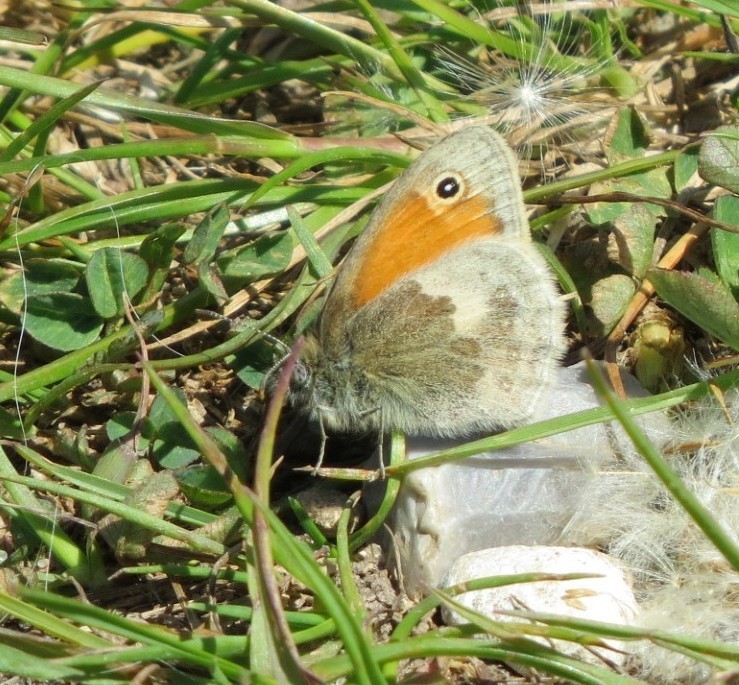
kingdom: Animalia
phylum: Arthropoda
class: Insecta
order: Lepidoptera
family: Nymphalidae
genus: Coenonympha
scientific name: Coenonympha pamphilus
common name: Small heath
